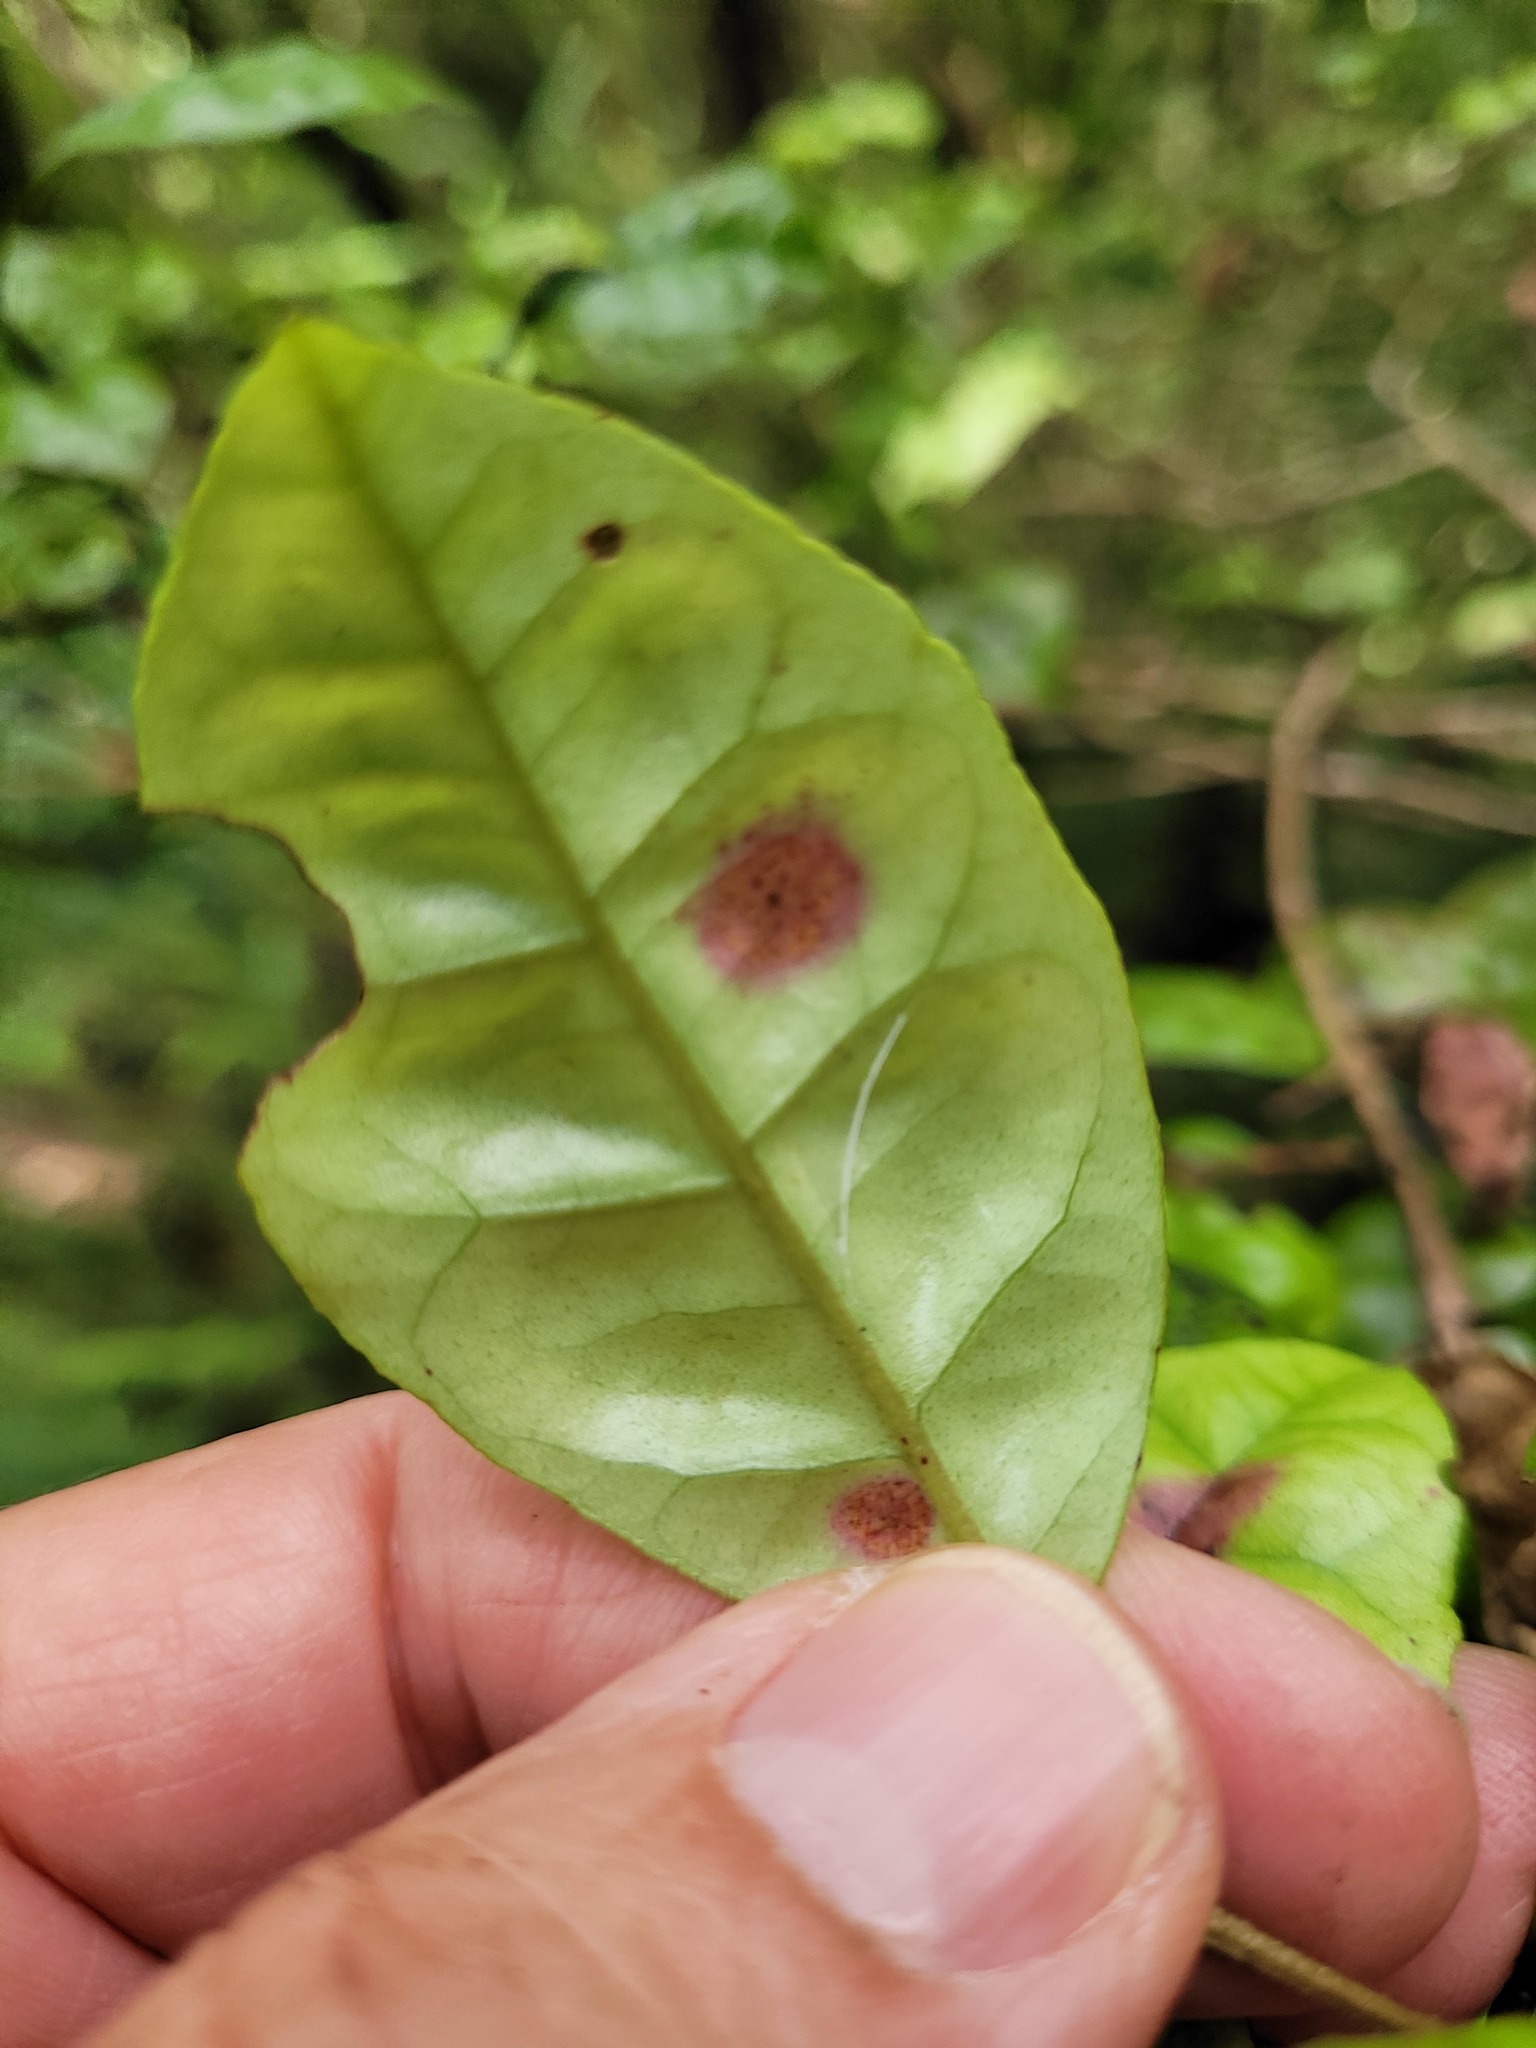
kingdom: Fungi
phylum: Basidiomycota
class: Pucciniomycetes
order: Pucciniales
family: Sphaerophragmiaceae
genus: Austropuccinia
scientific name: Austropuccinia psidii
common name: Myrtle rust
